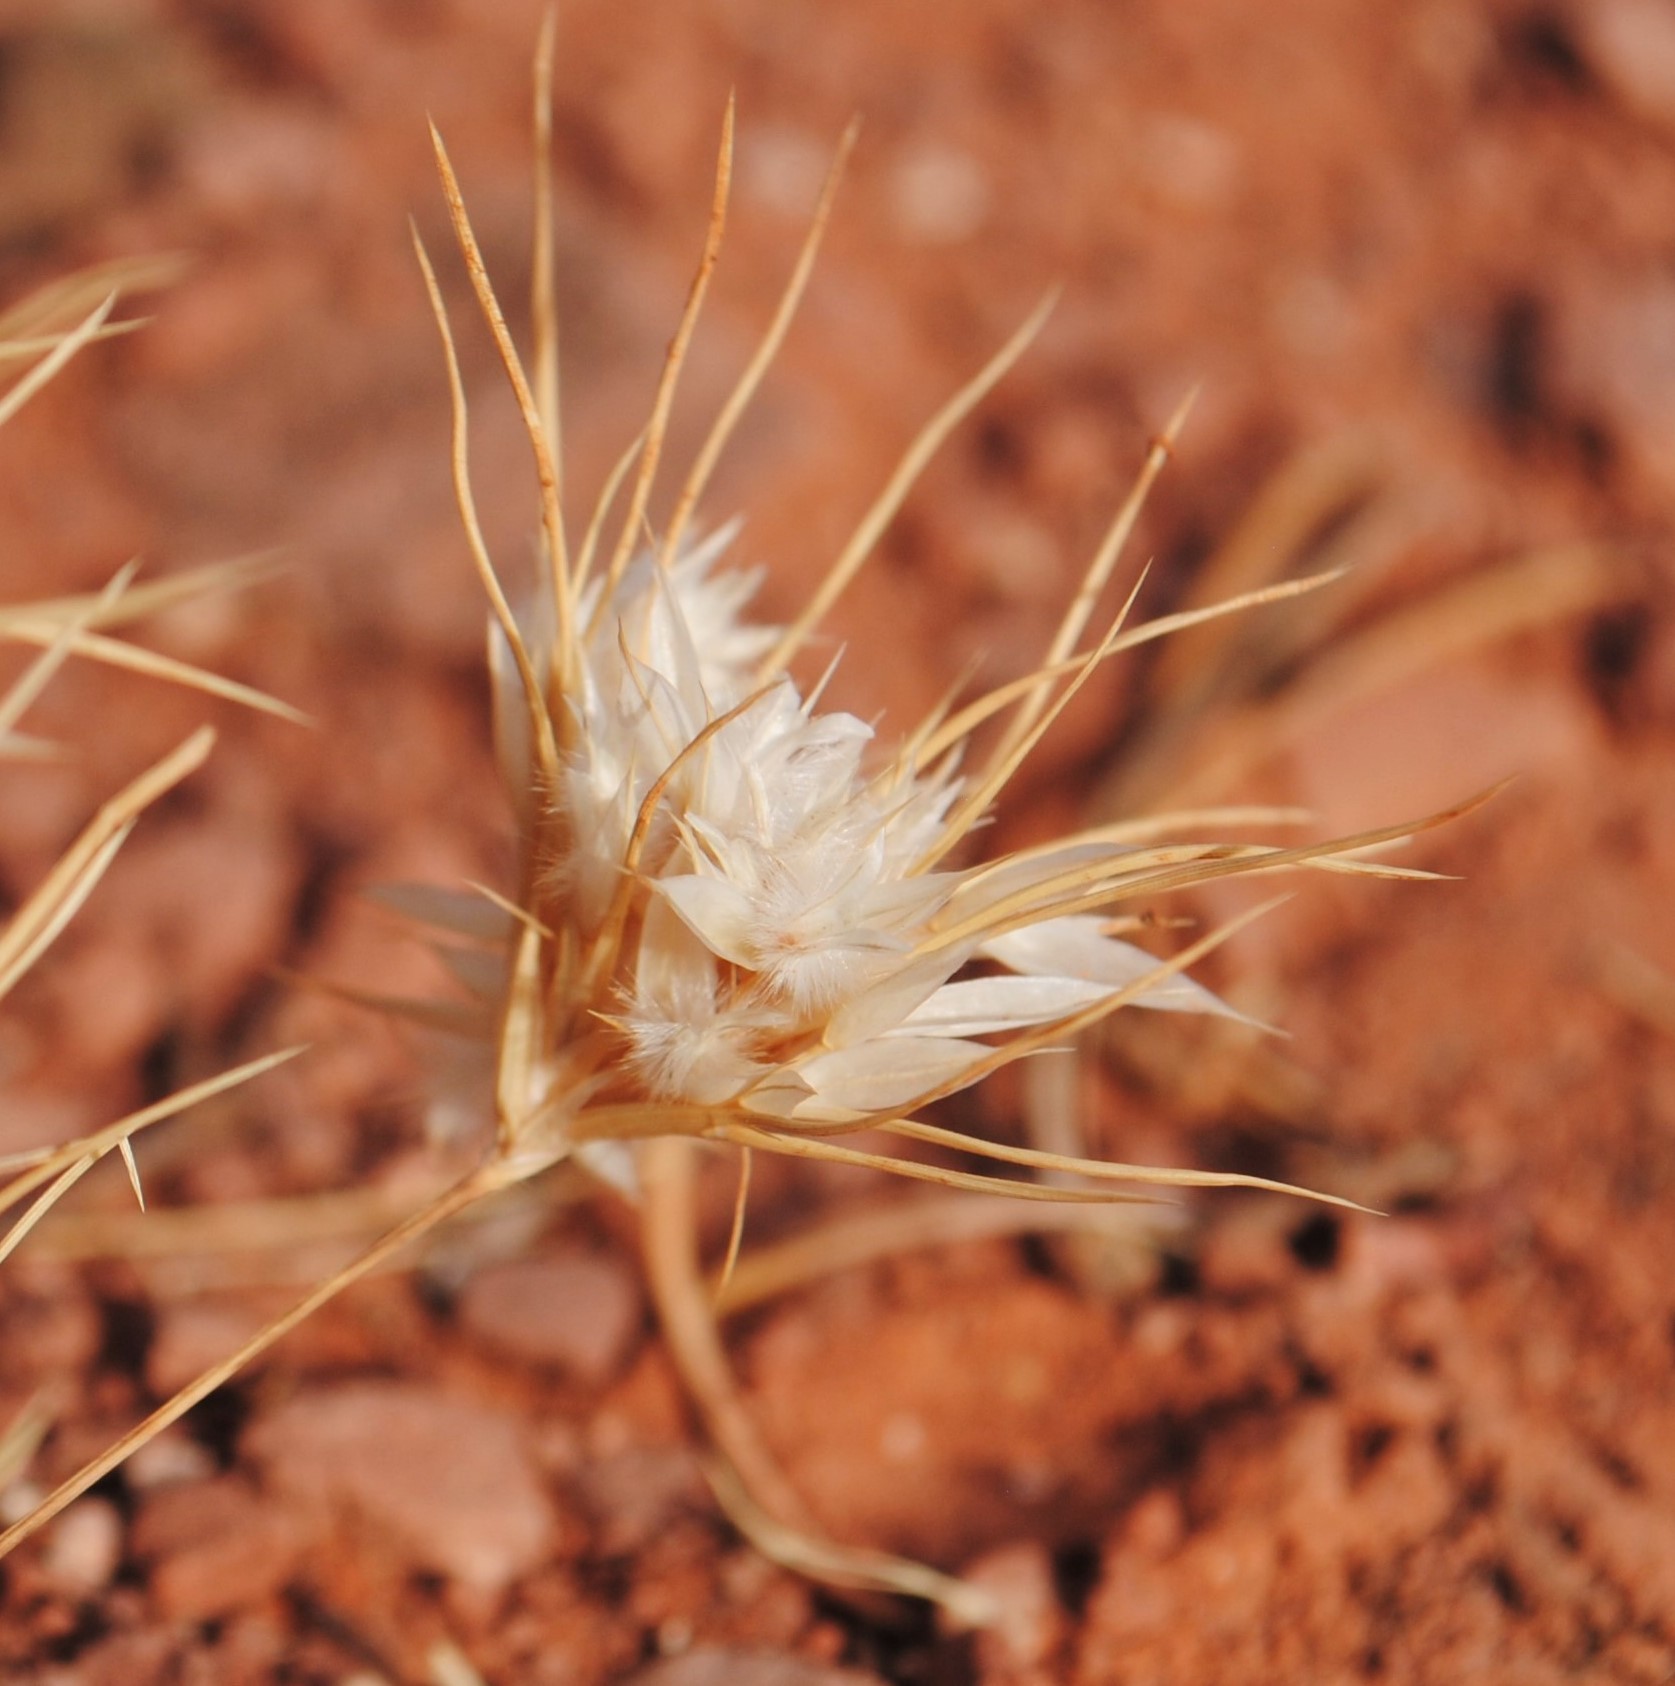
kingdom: Plantae
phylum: Tracheophyta
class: Liliopsida
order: Poales
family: Poaceae
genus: Dasyochloa
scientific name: Dasyochloa pulchella
